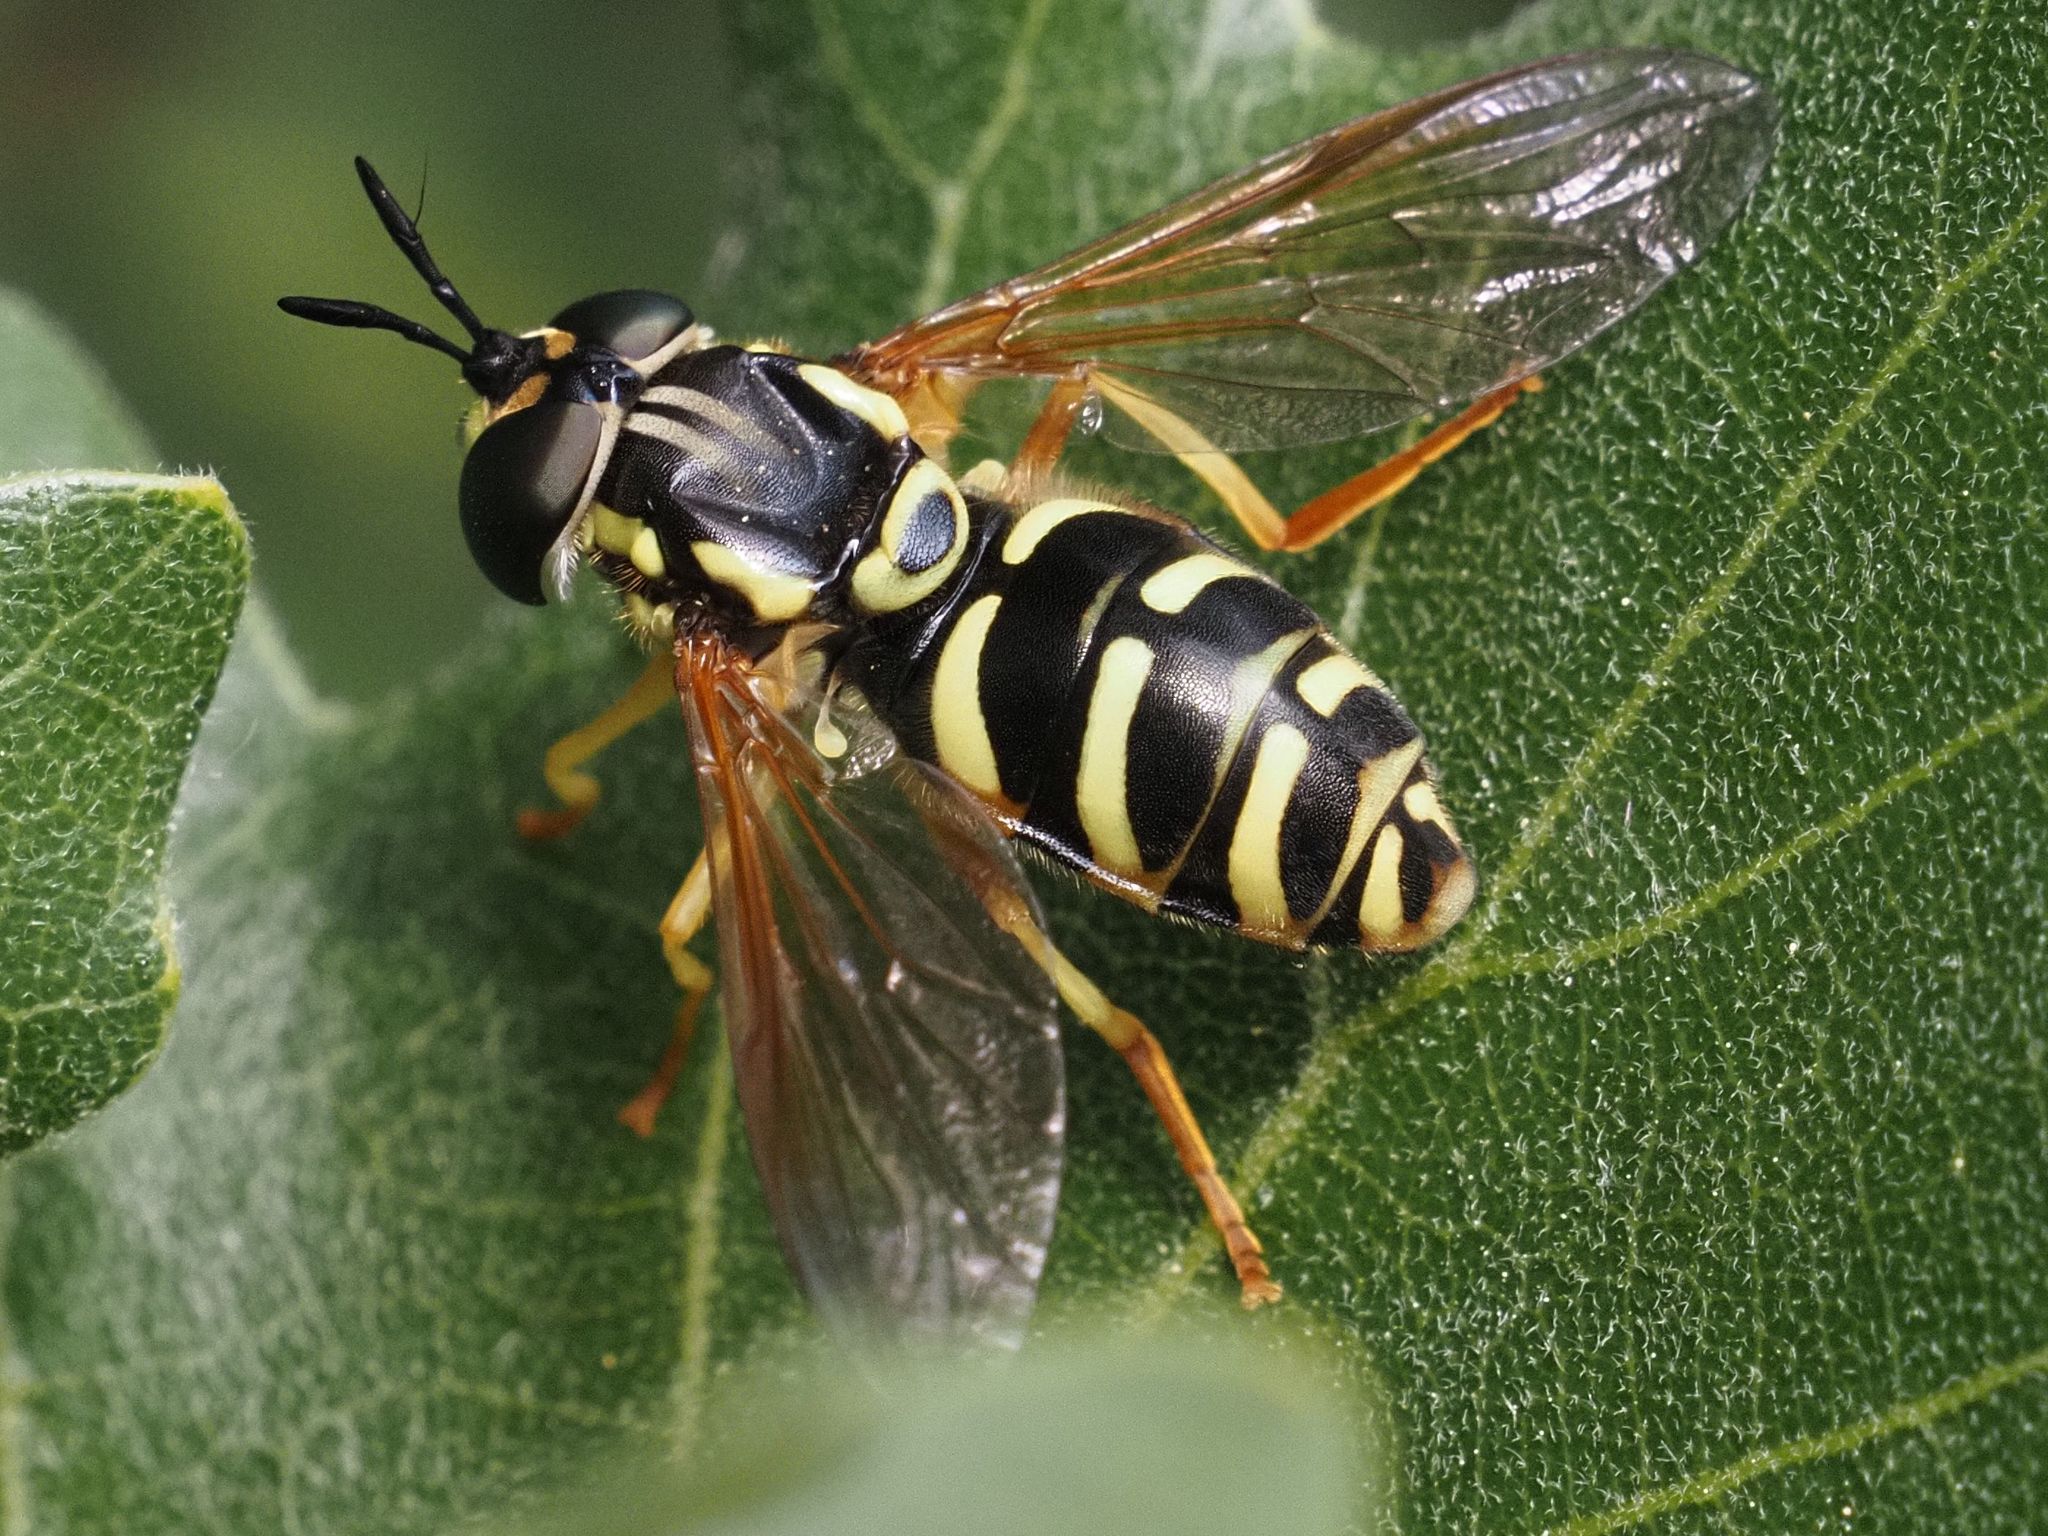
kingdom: Animalia
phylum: Arthropoda
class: Insecta
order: Diptera
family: Syrphidae
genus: Chrysotoxum
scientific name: Chrysotoxum elegans
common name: Zipperback
